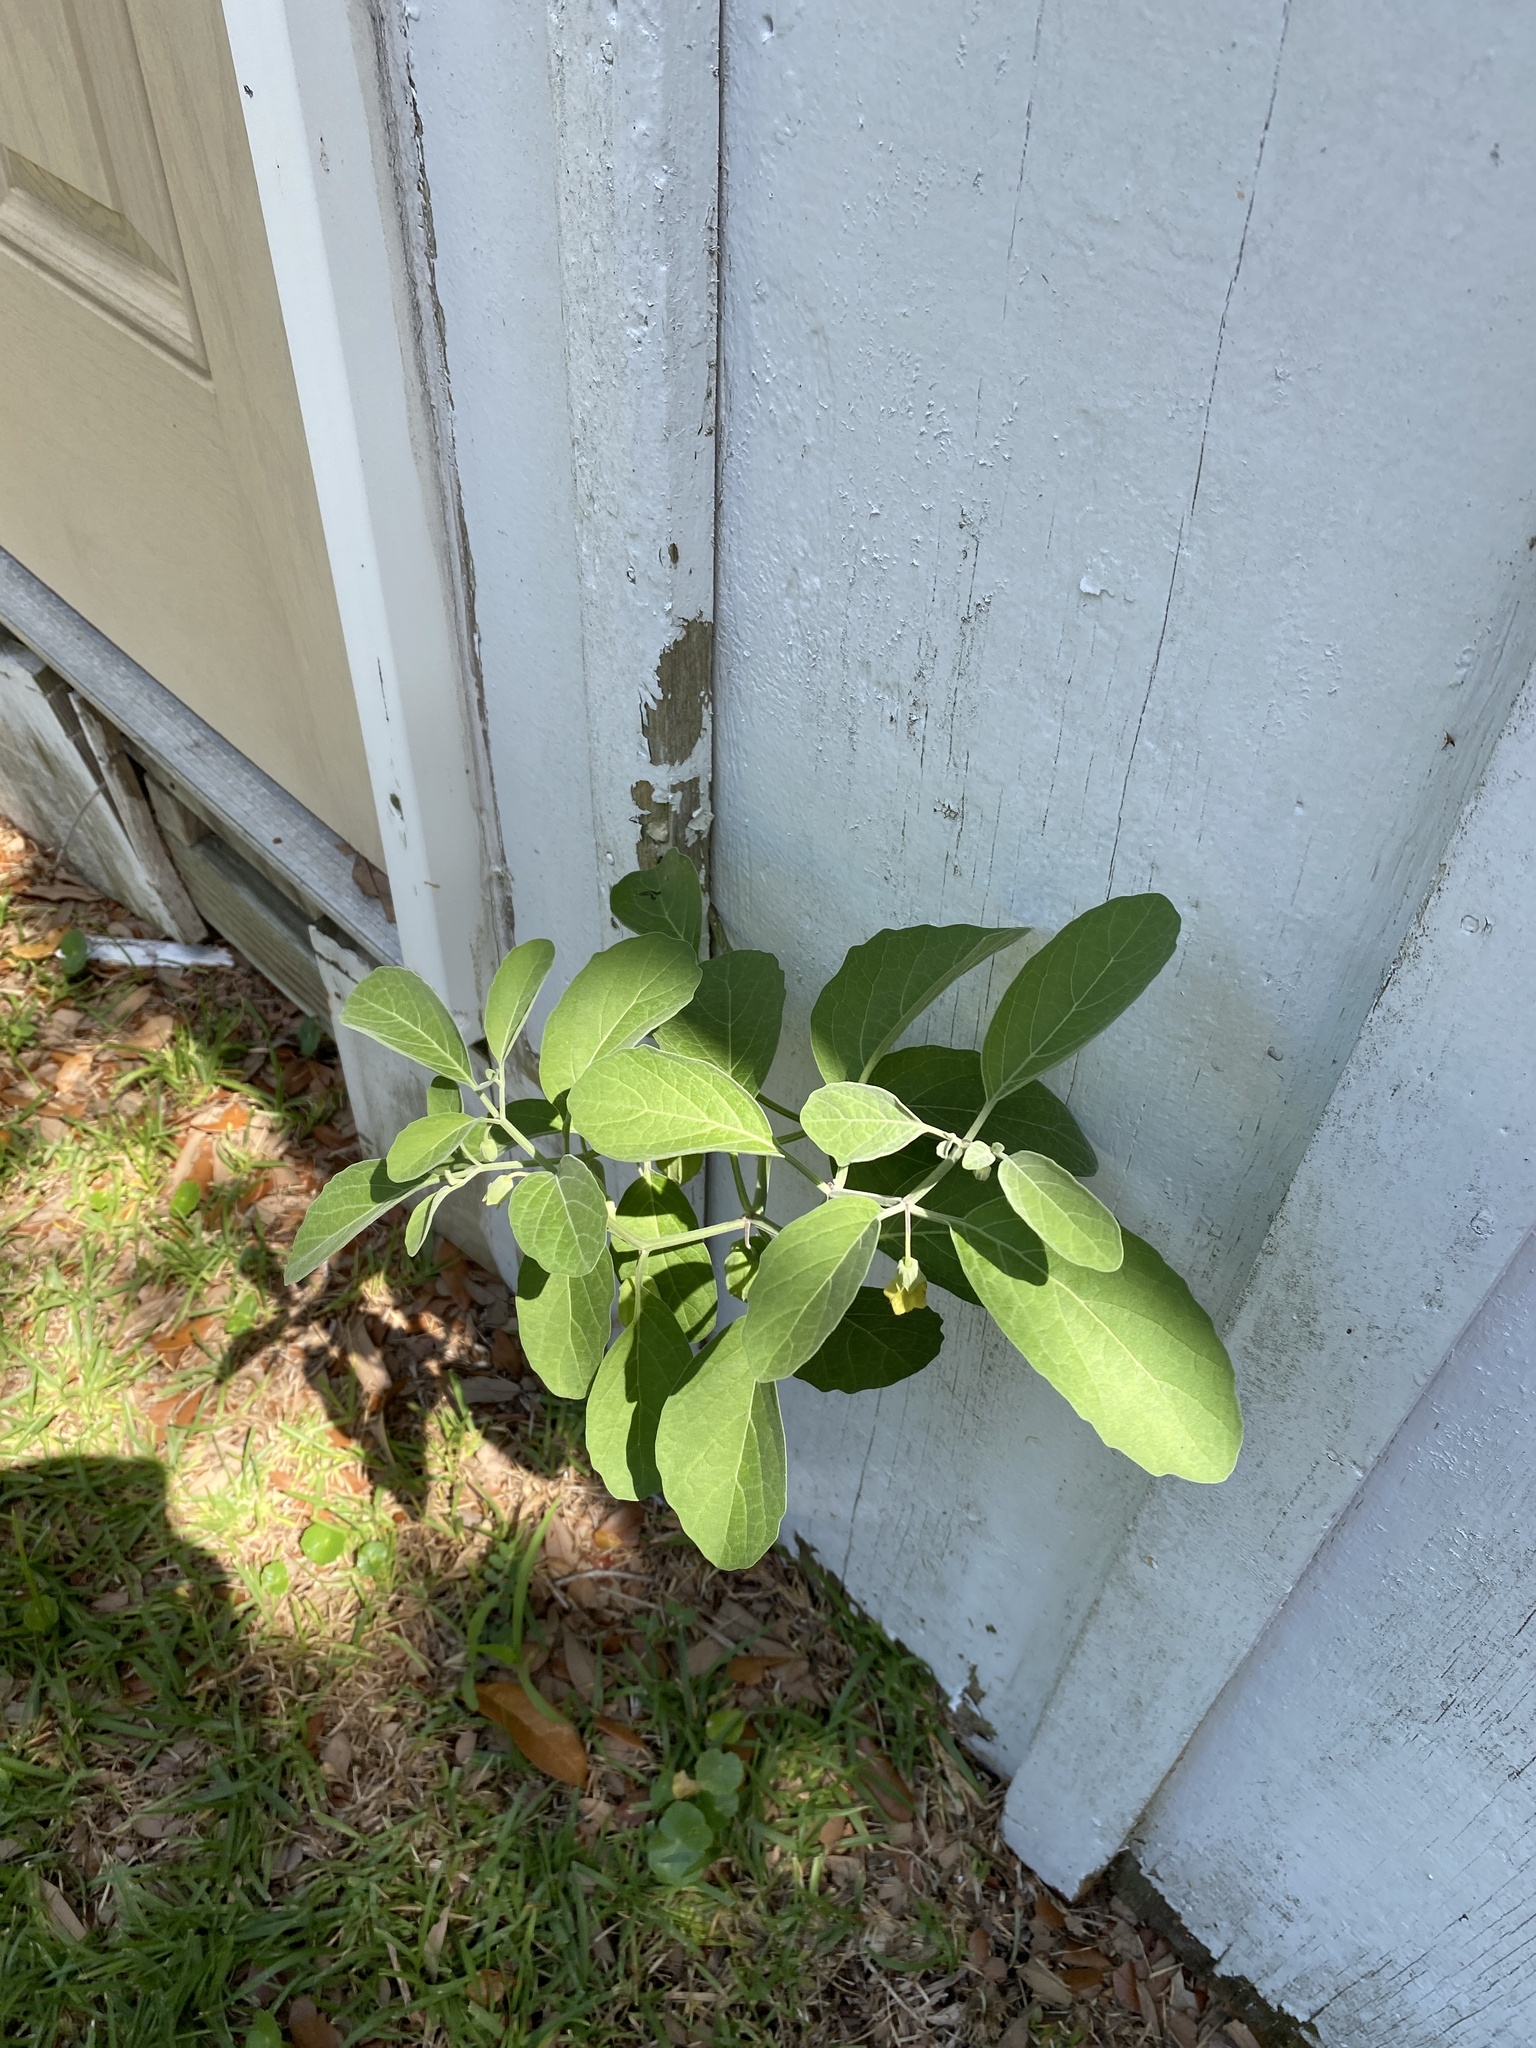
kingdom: Plantae
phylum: Tracheophyta
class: Magnoliopsida
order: Solanales
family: Solanaceae
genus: Physalis
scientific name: Physalis walteri
